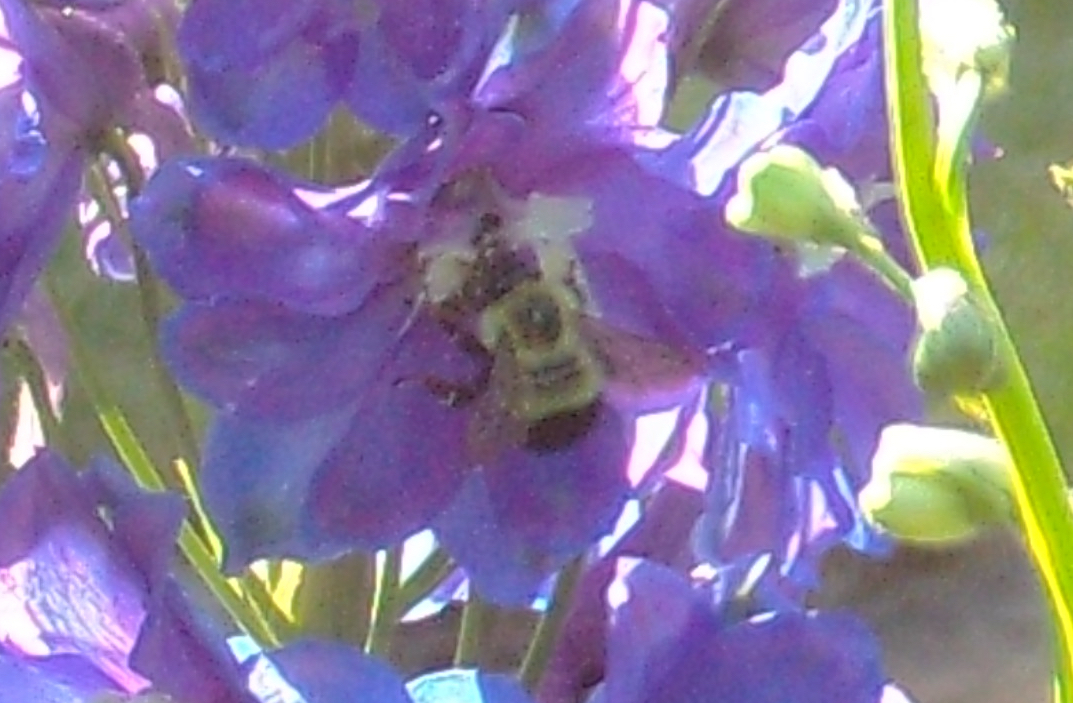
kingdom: Animalia
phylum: Arthropoda
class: Insecta
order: Hymenoptera
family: Apidae
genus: Pyrobombus
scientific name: Pyrobombus
